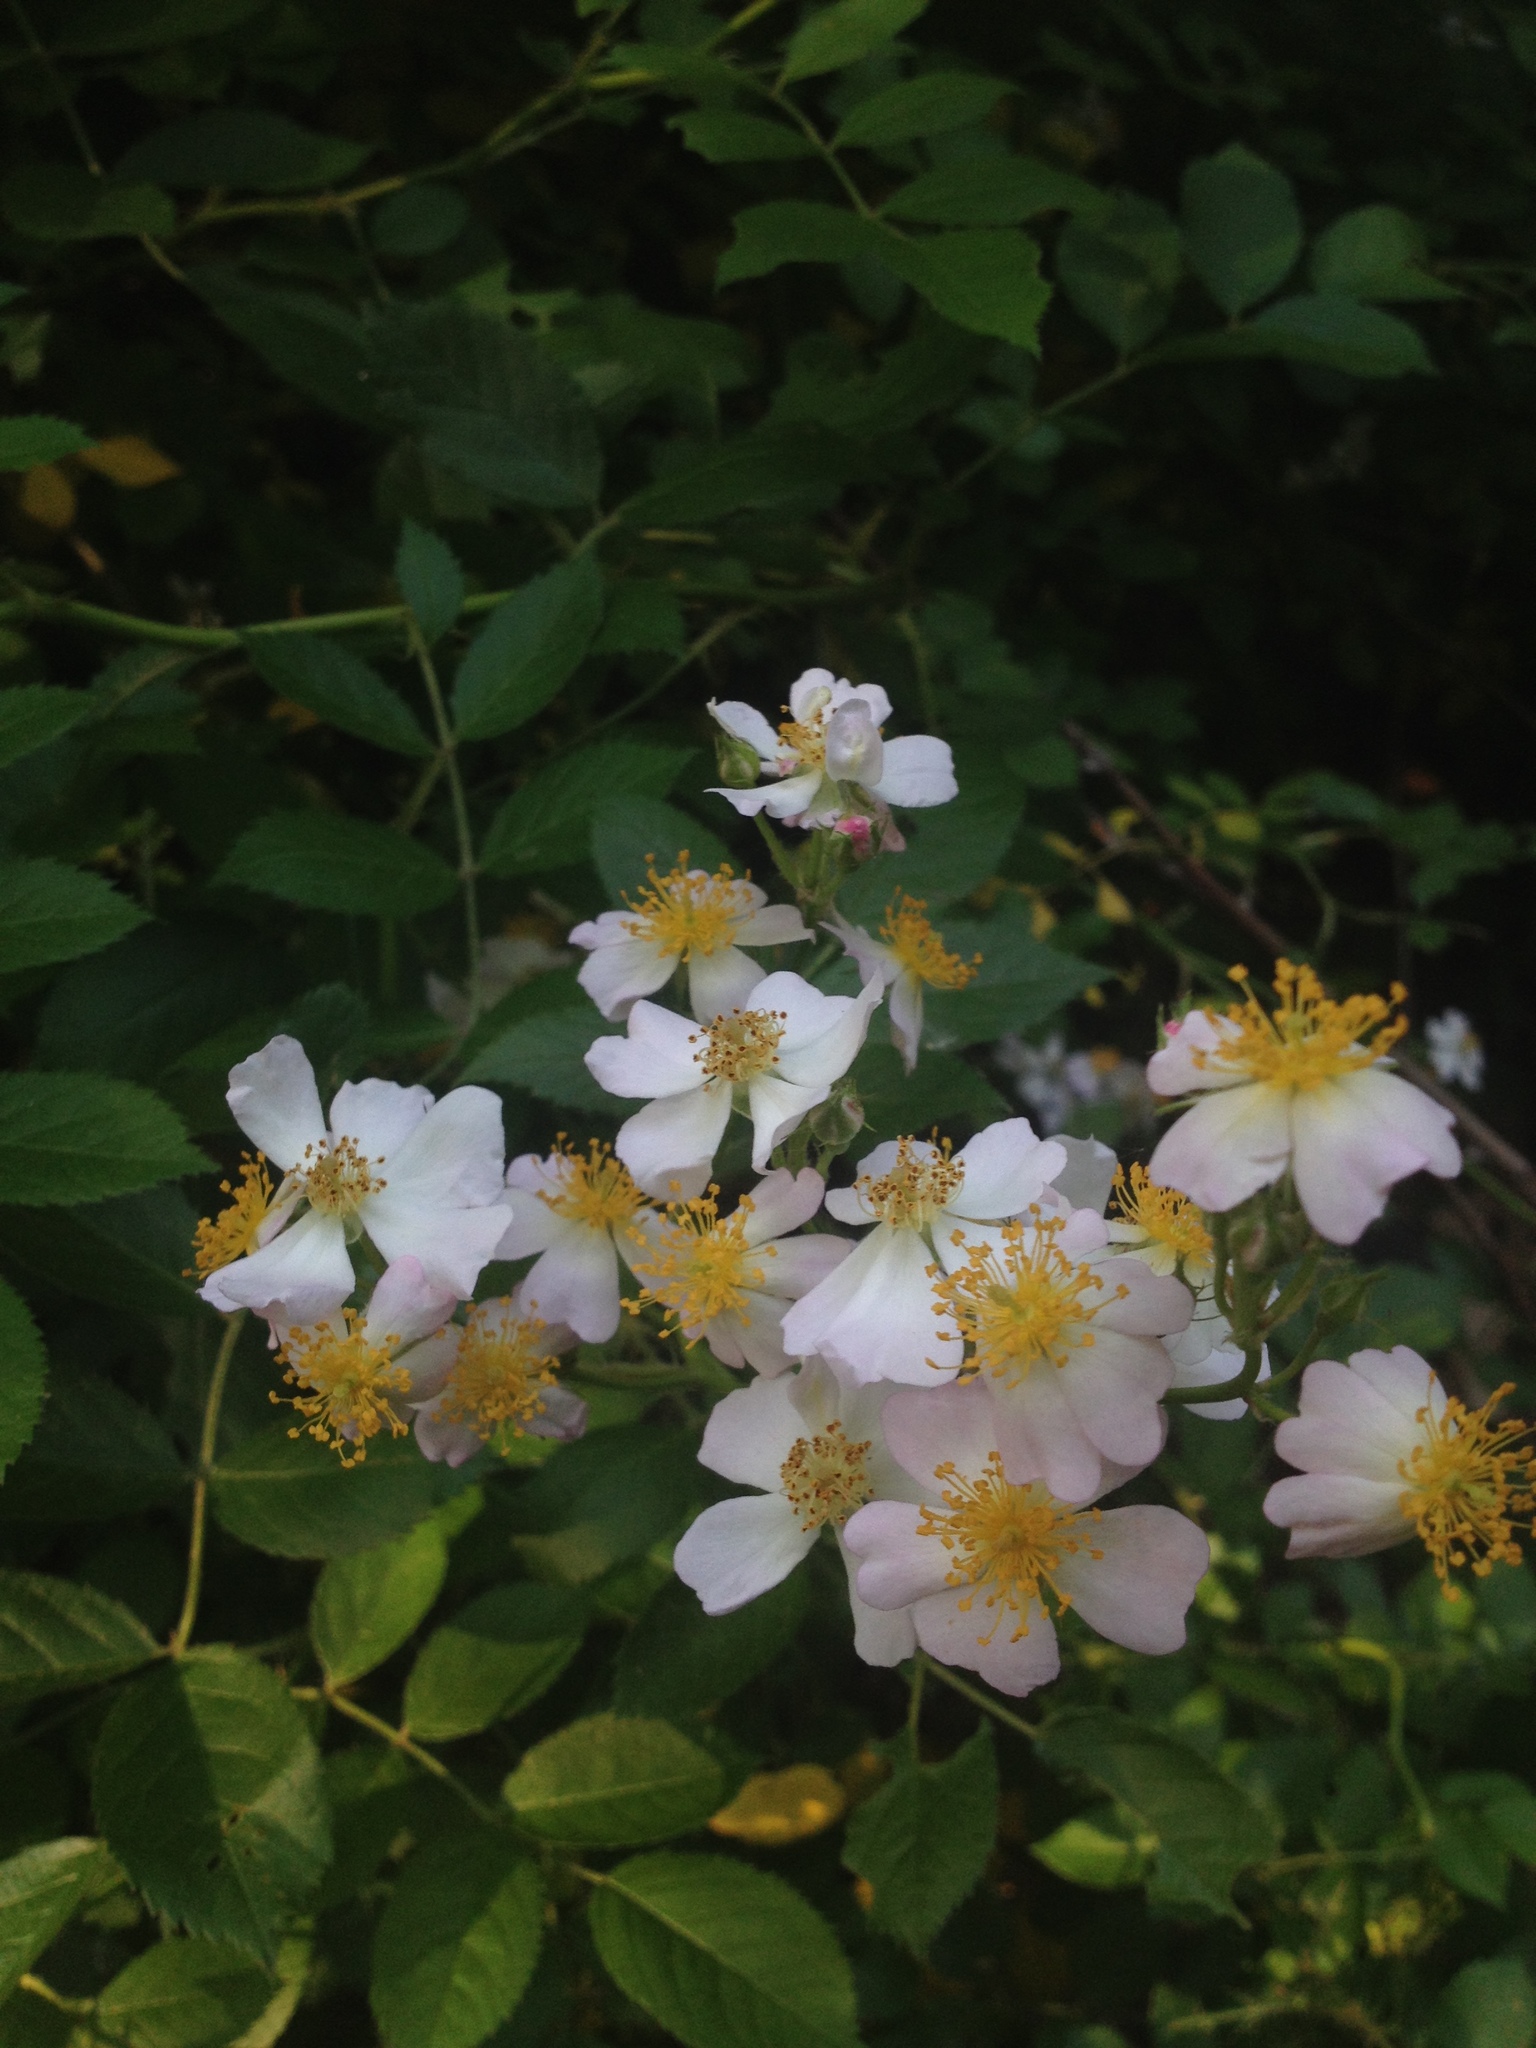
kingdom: Plantae
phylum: Tracheophyta
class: Magnoliopsida
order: Rosales
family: Rosaceae
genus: Rosa
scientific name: Rosa multiflora
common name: Multiflora rose
